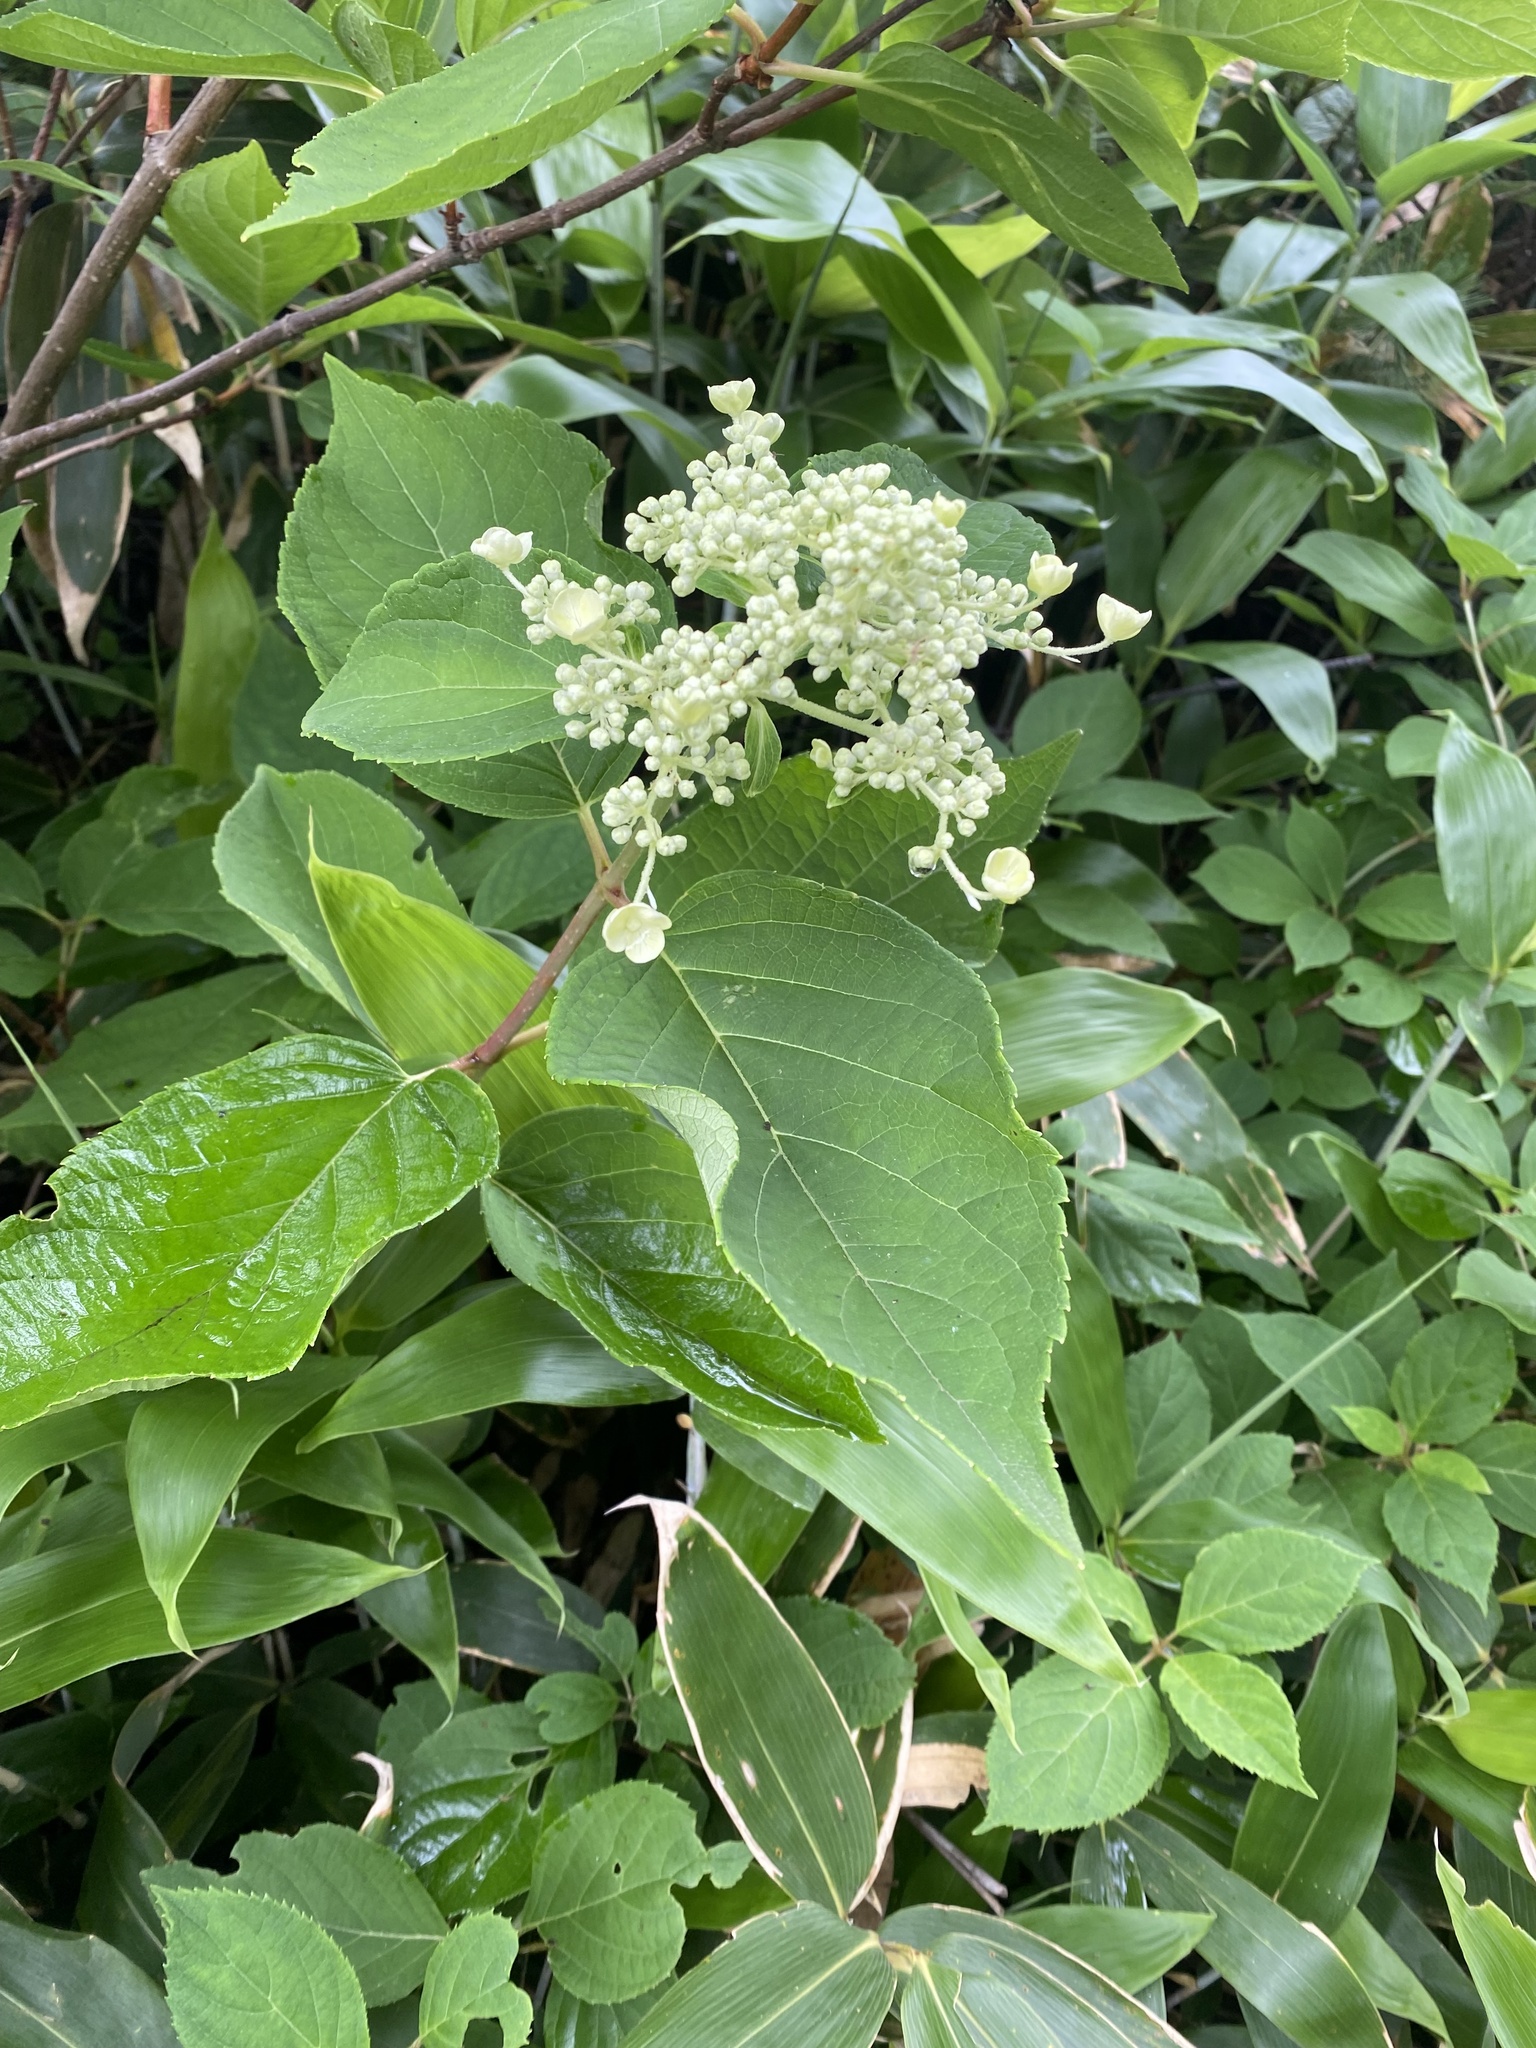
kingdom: Plantae
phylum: Tracheophyta
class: Magnoliopsida
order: Cornales
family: Hydrangeaceae
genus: Hydrangea
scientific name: Hydrangea paniculata
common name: Panicled hydrangea
